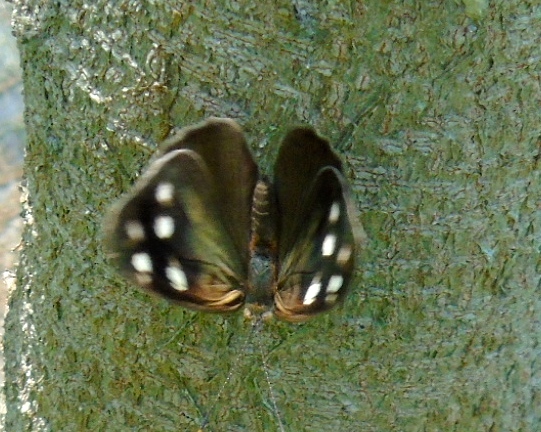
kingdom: Animalia
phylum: Arthropoda
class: Insecta
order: Lepidoptera
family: Nymphalidae
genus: Eunica
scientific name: Eunica tatila
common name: Florida purplewing
